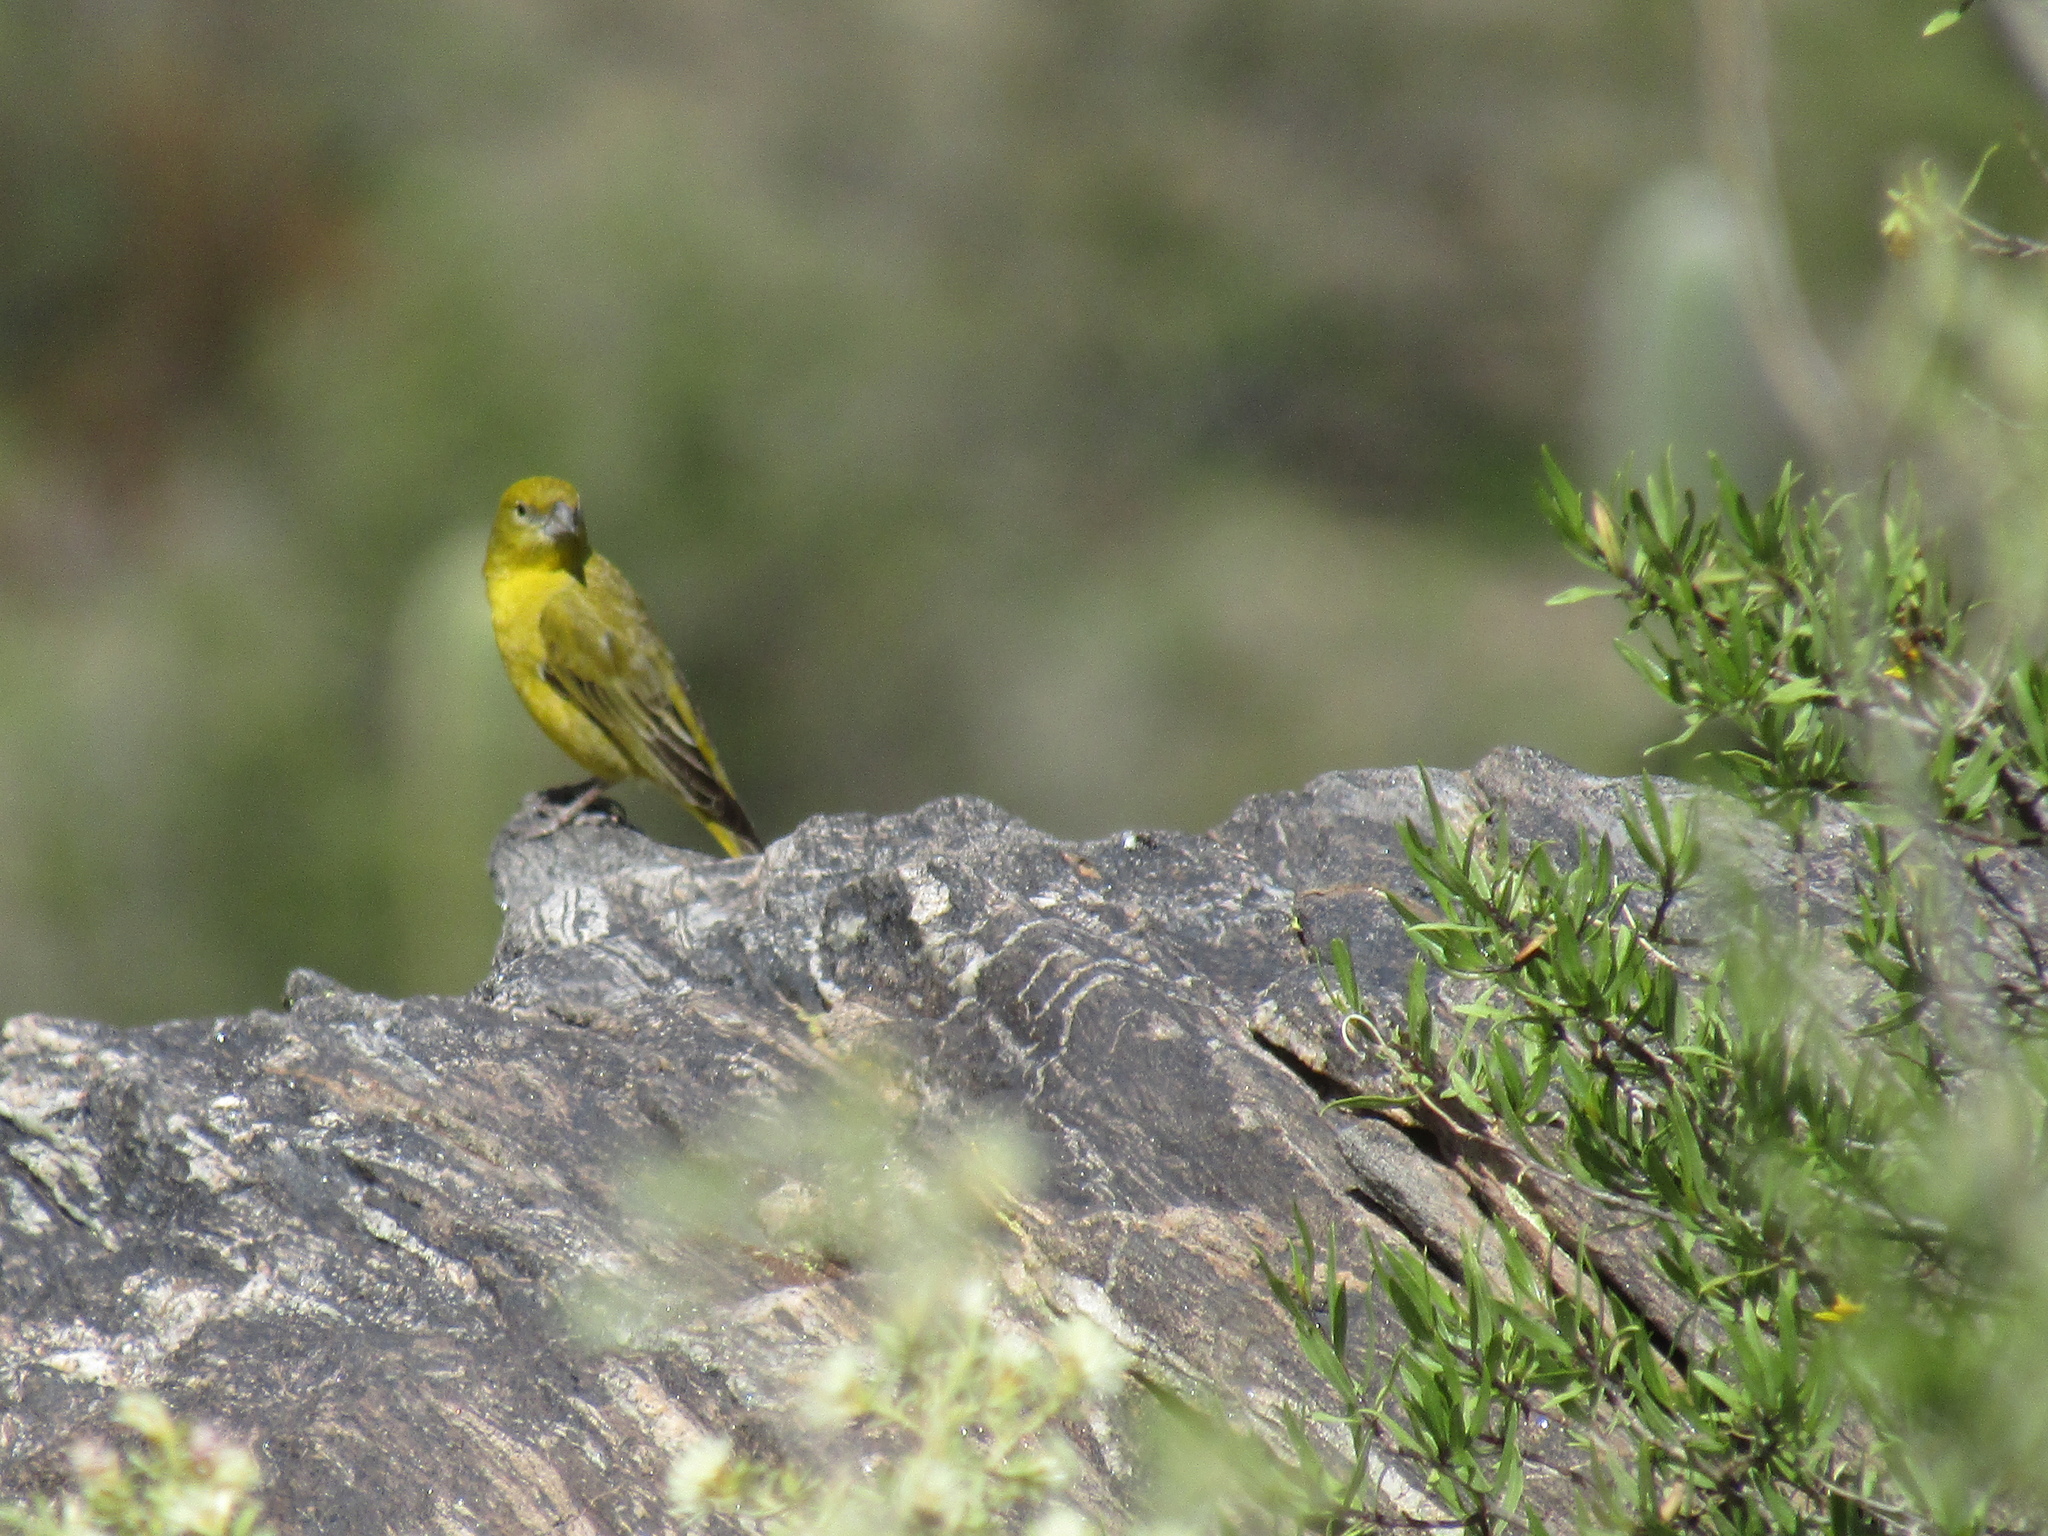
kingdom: Animalia
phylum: Chordata
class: Aves
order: Passeriformes
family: Thraupidae
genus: Sicalis
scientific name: Sicalis olivascens
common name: Greenish yellow finch
